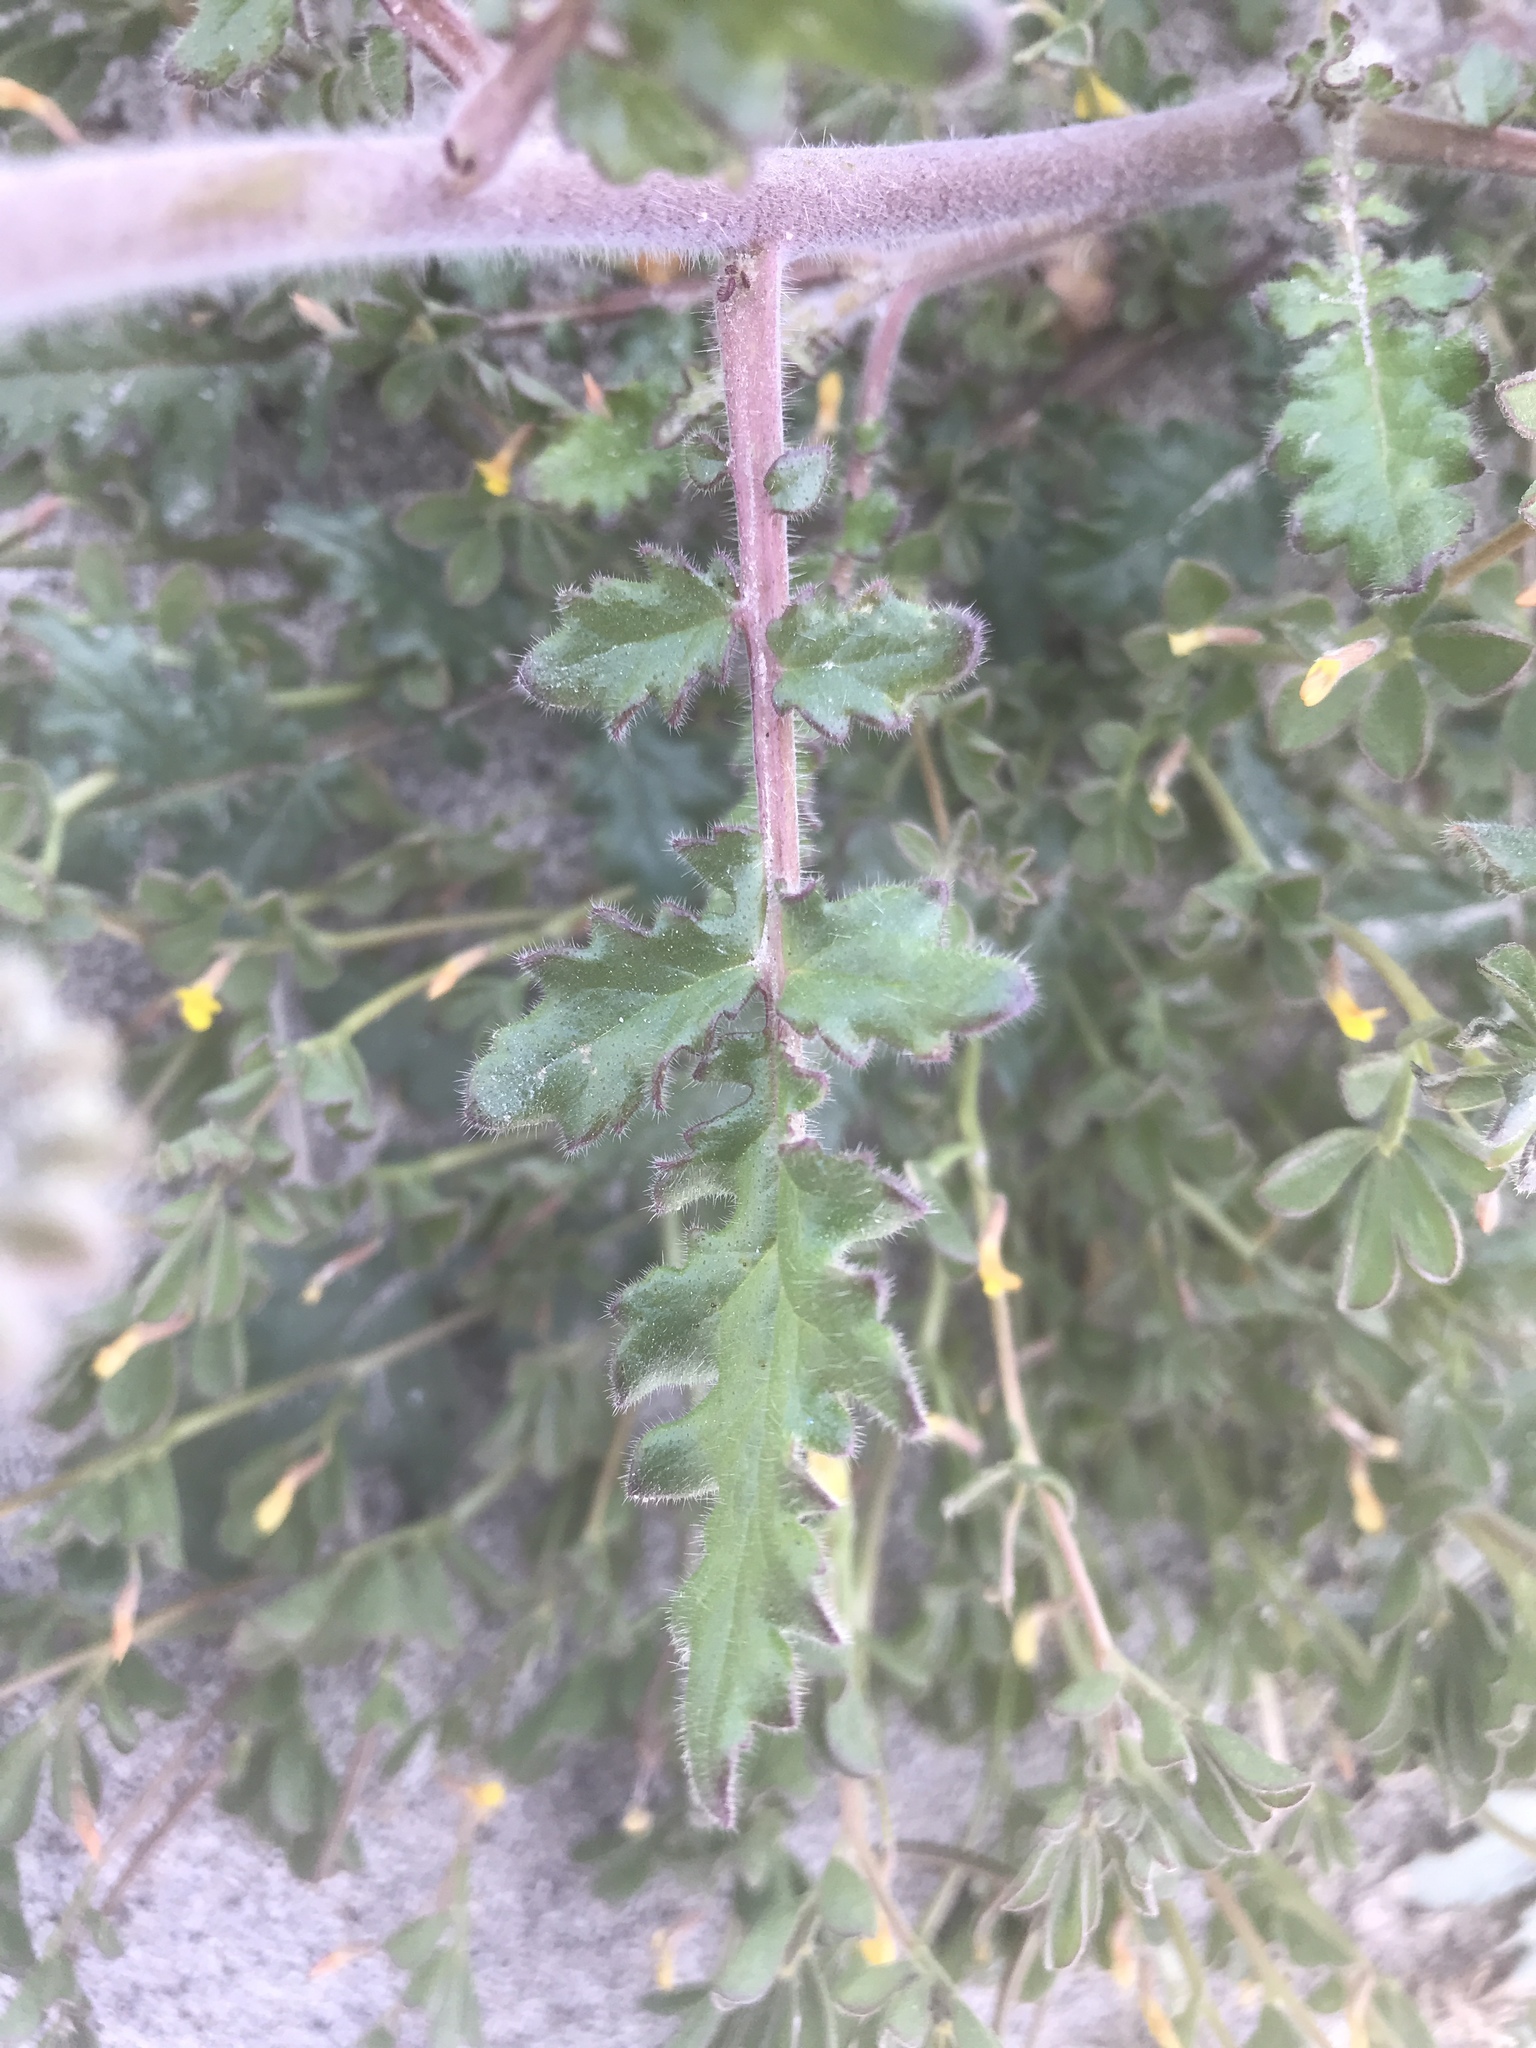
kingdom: Plantae
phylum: Tracheophyta
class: Magnoliopsida
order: Boraginales
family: Hydrophyllaceae
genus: Phacelia
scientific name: Phacelia crenulata
